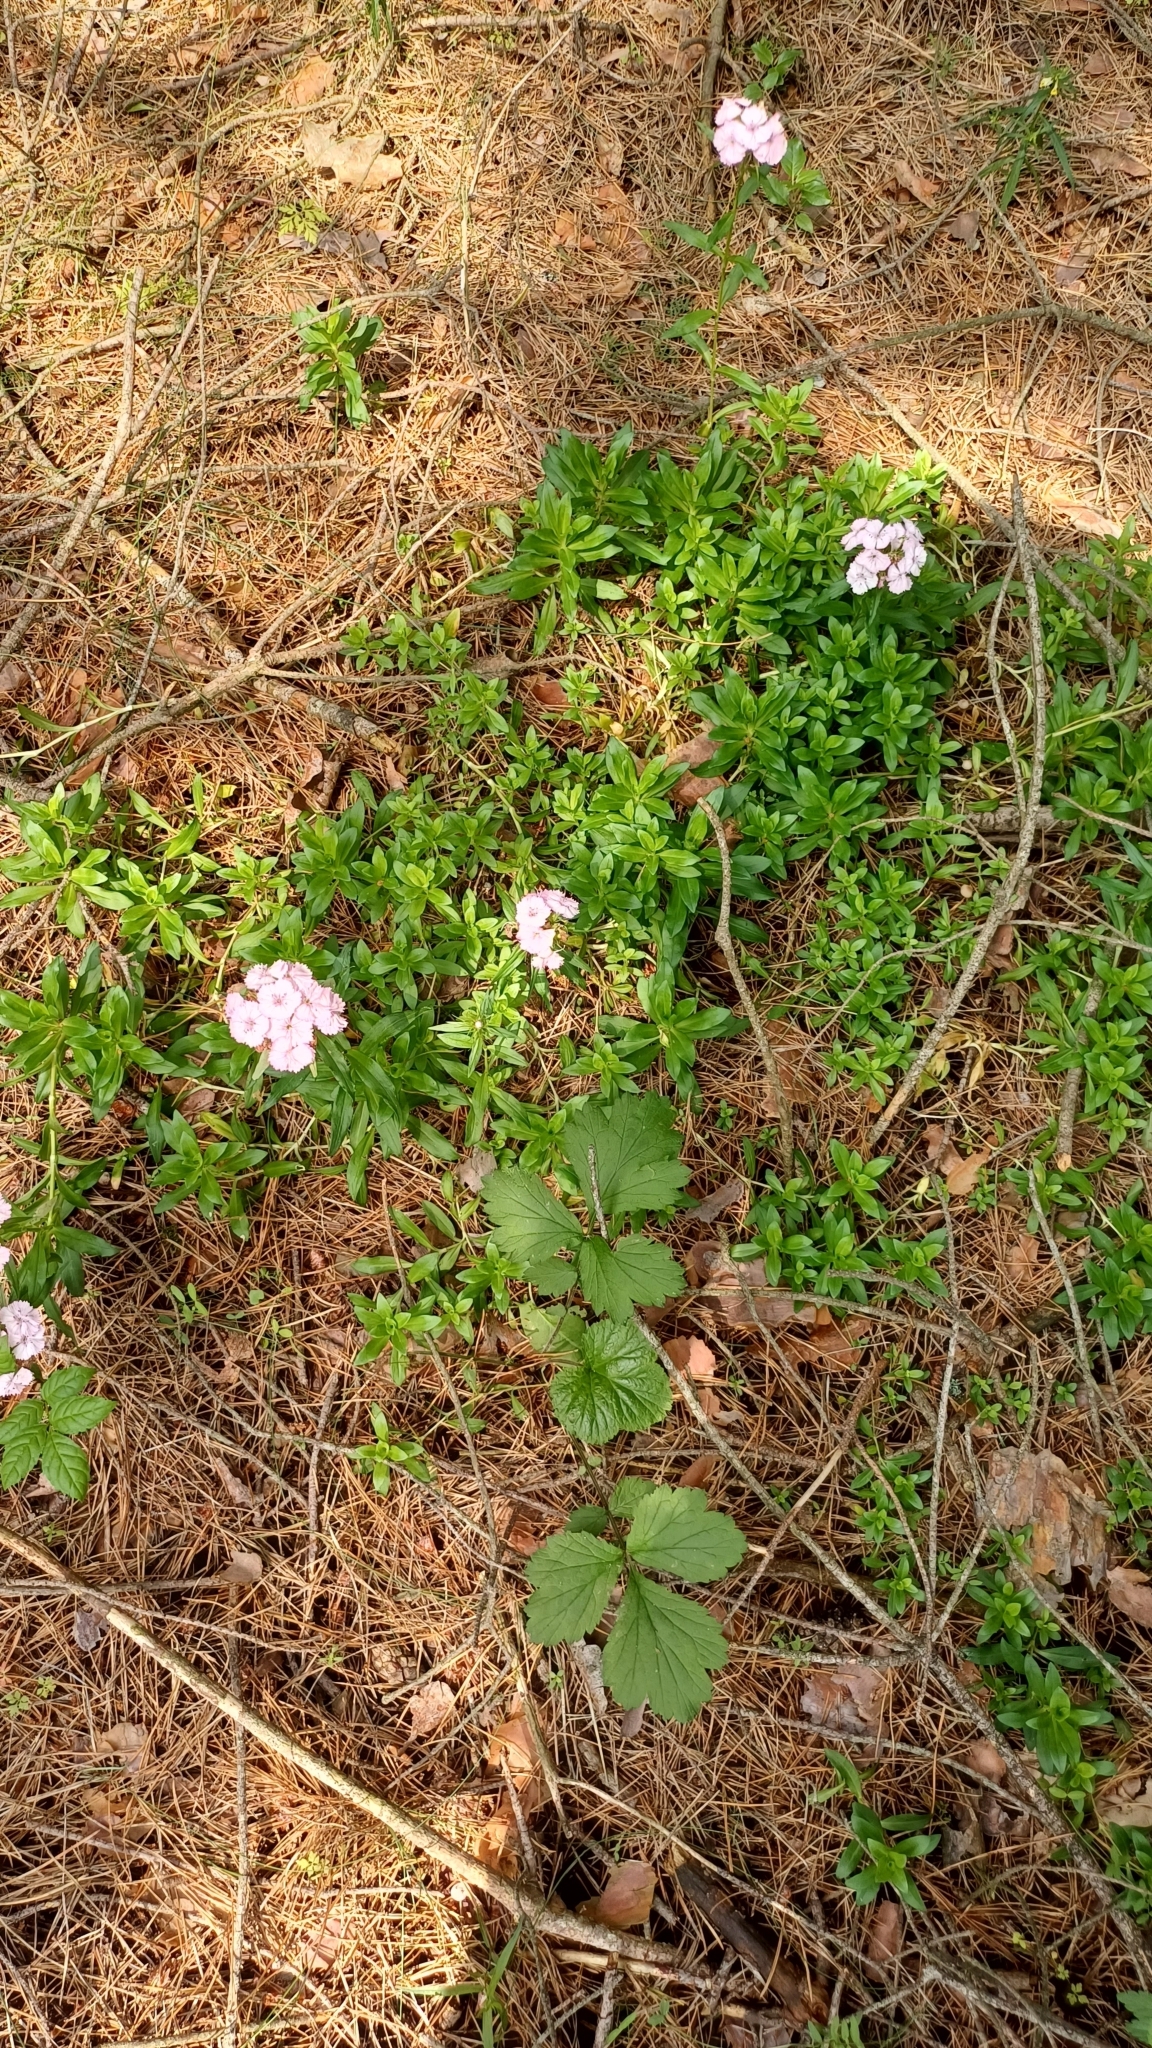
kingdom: Plantae
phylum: Tracheophyta
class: Magnoliopsida
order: Caryophyllales
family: Caryophyllaceae
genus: Dianthus
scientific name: Dianthus barbatus
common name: Sweet-william
